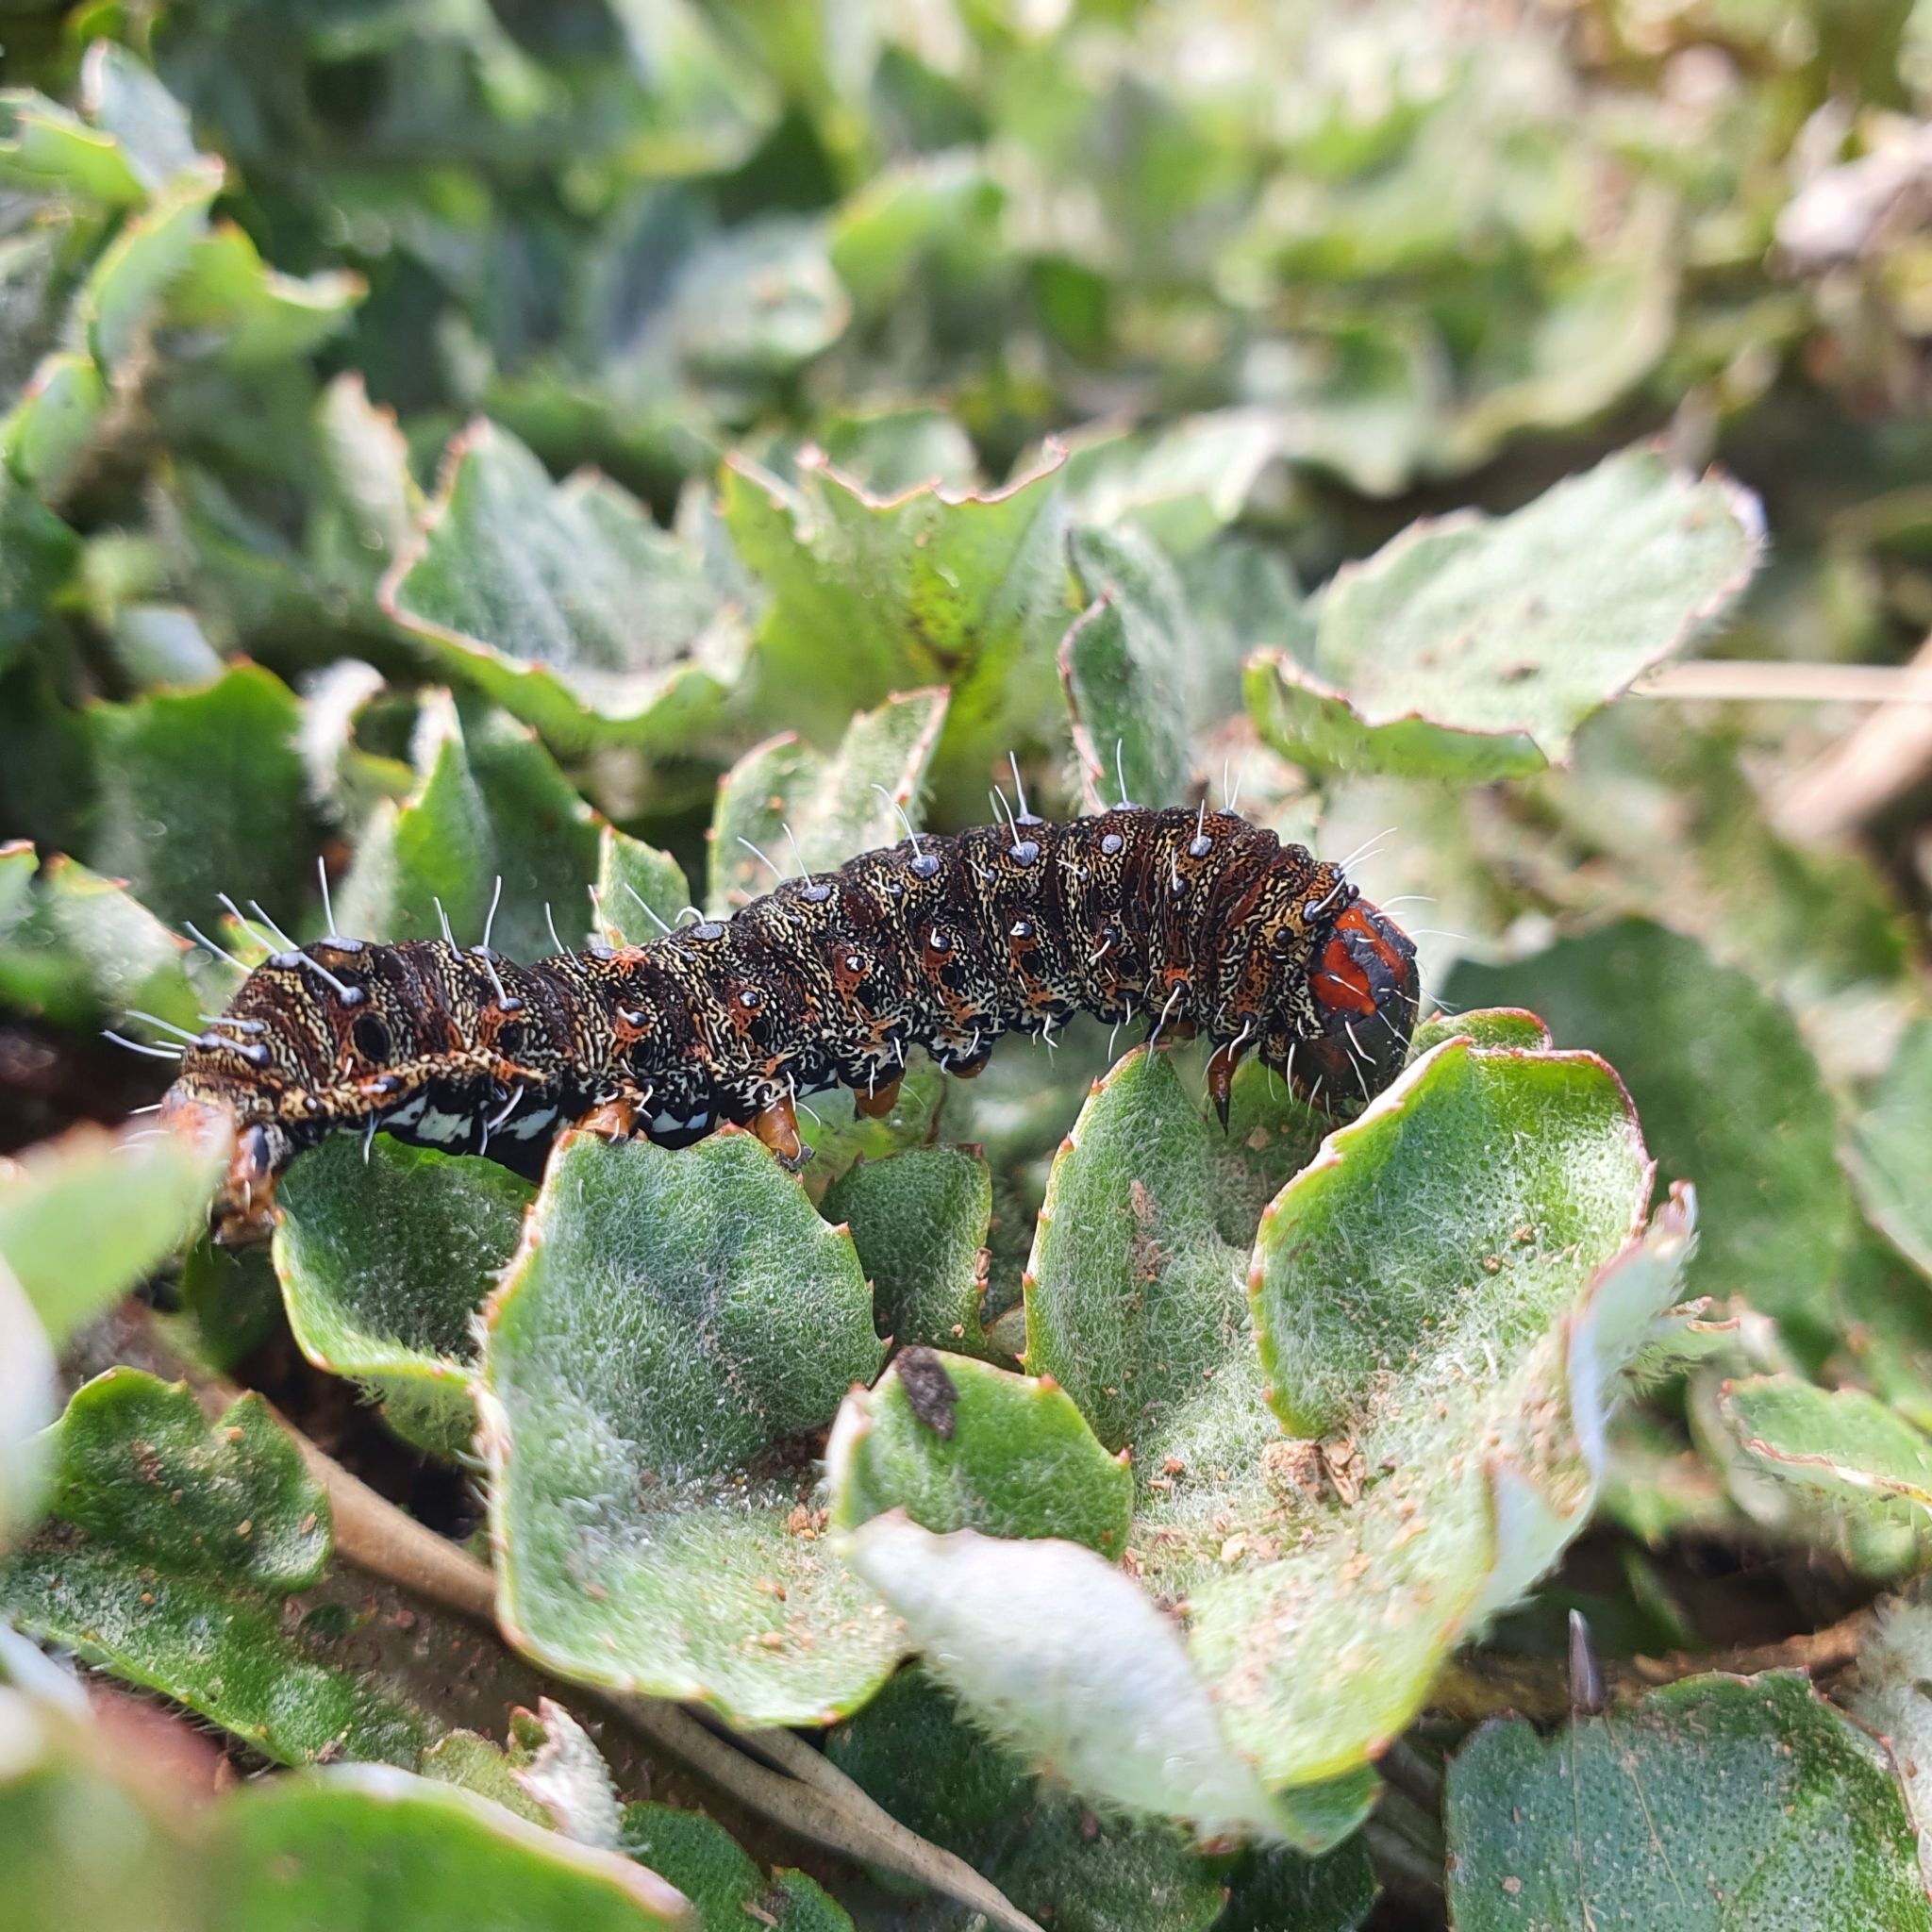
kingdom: Animalia
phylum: Arthropoda
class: Insecta
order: Lepidoptera
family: Noctuidae
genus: Apina
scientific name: Apina callisto
